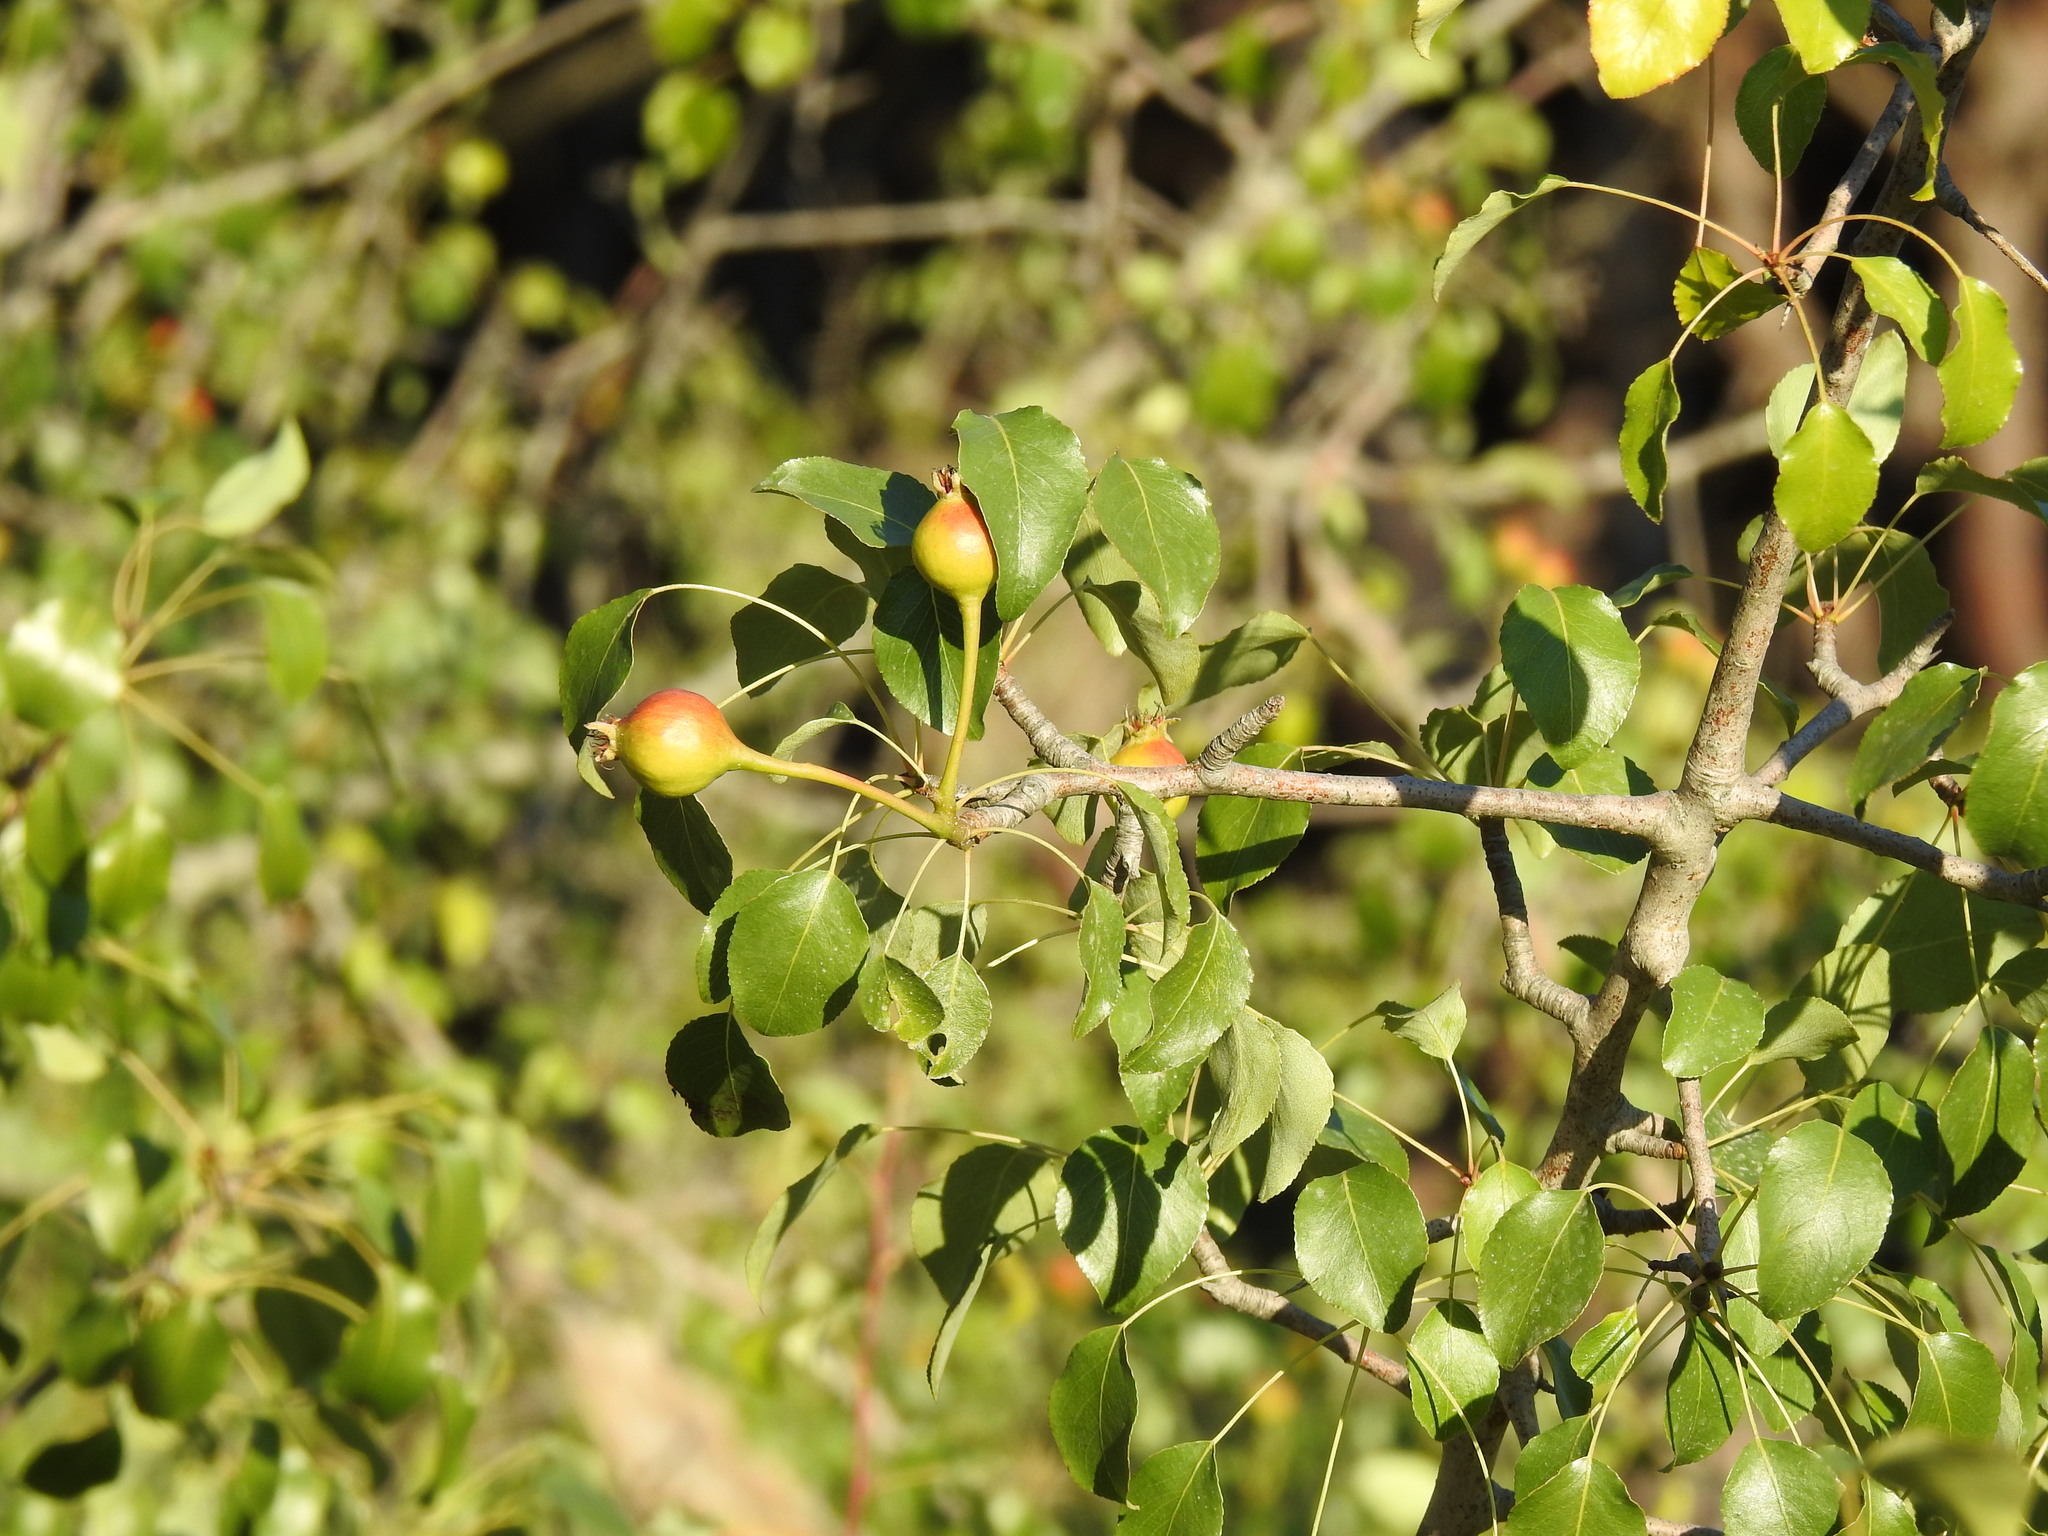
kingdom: Plantae
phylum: Tracheophyta
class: Magnoliopsida
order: Rosales
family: Rosaceae
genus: Pyrus
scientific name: Pyrus bourgaeana
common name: Iberian pear
